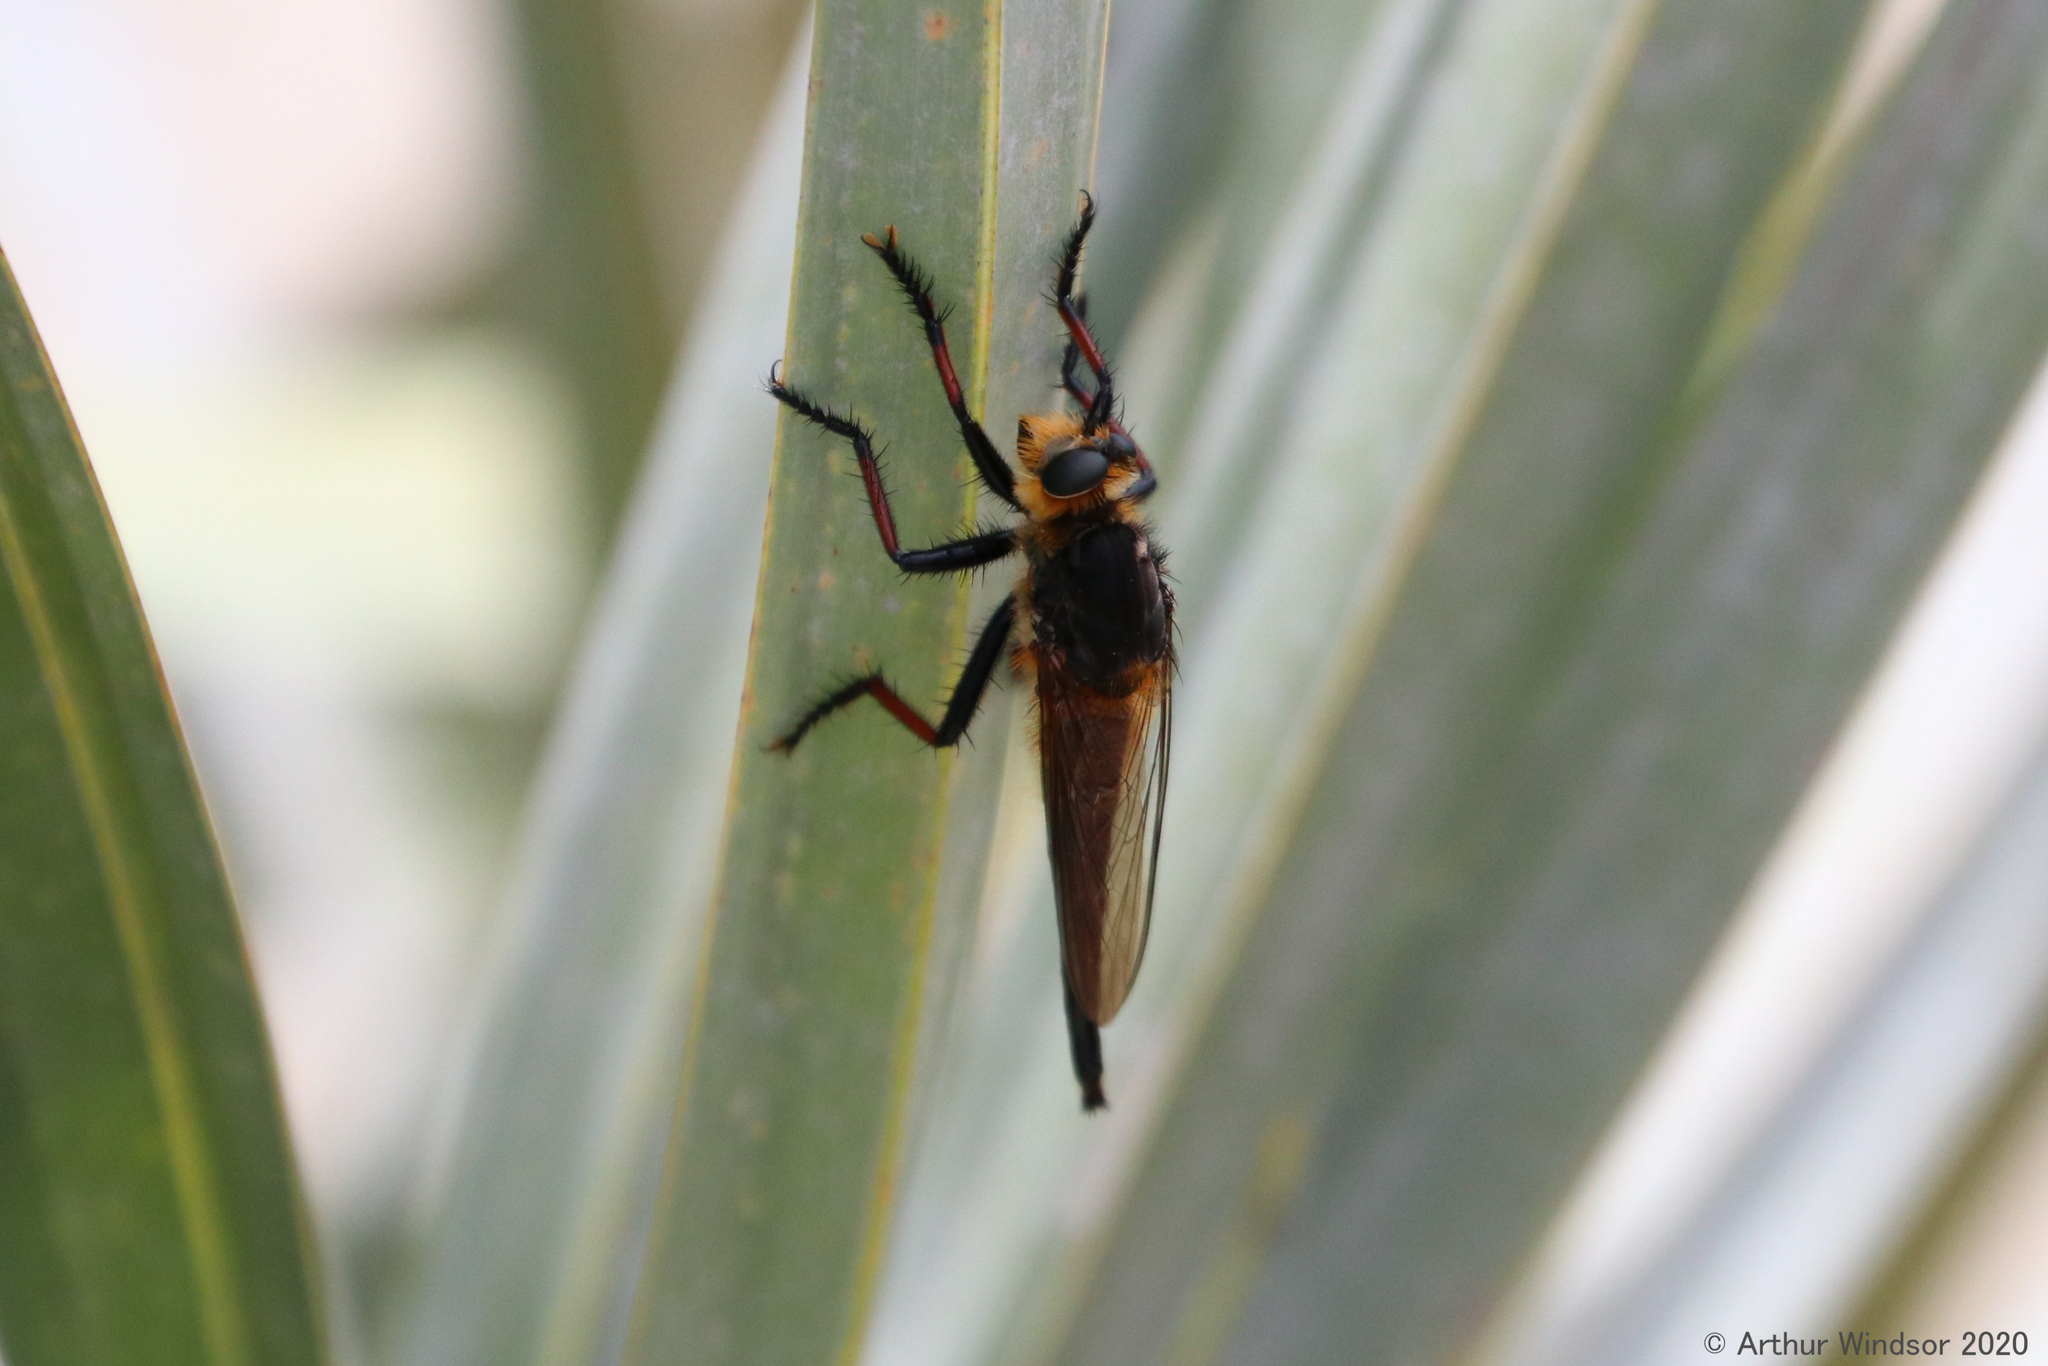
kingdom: Animalia
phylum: Arthropoda
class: Insecta
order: Diptera
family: Asilidae
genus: Proctacanthus
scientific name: Proctacanthus fulviventris
